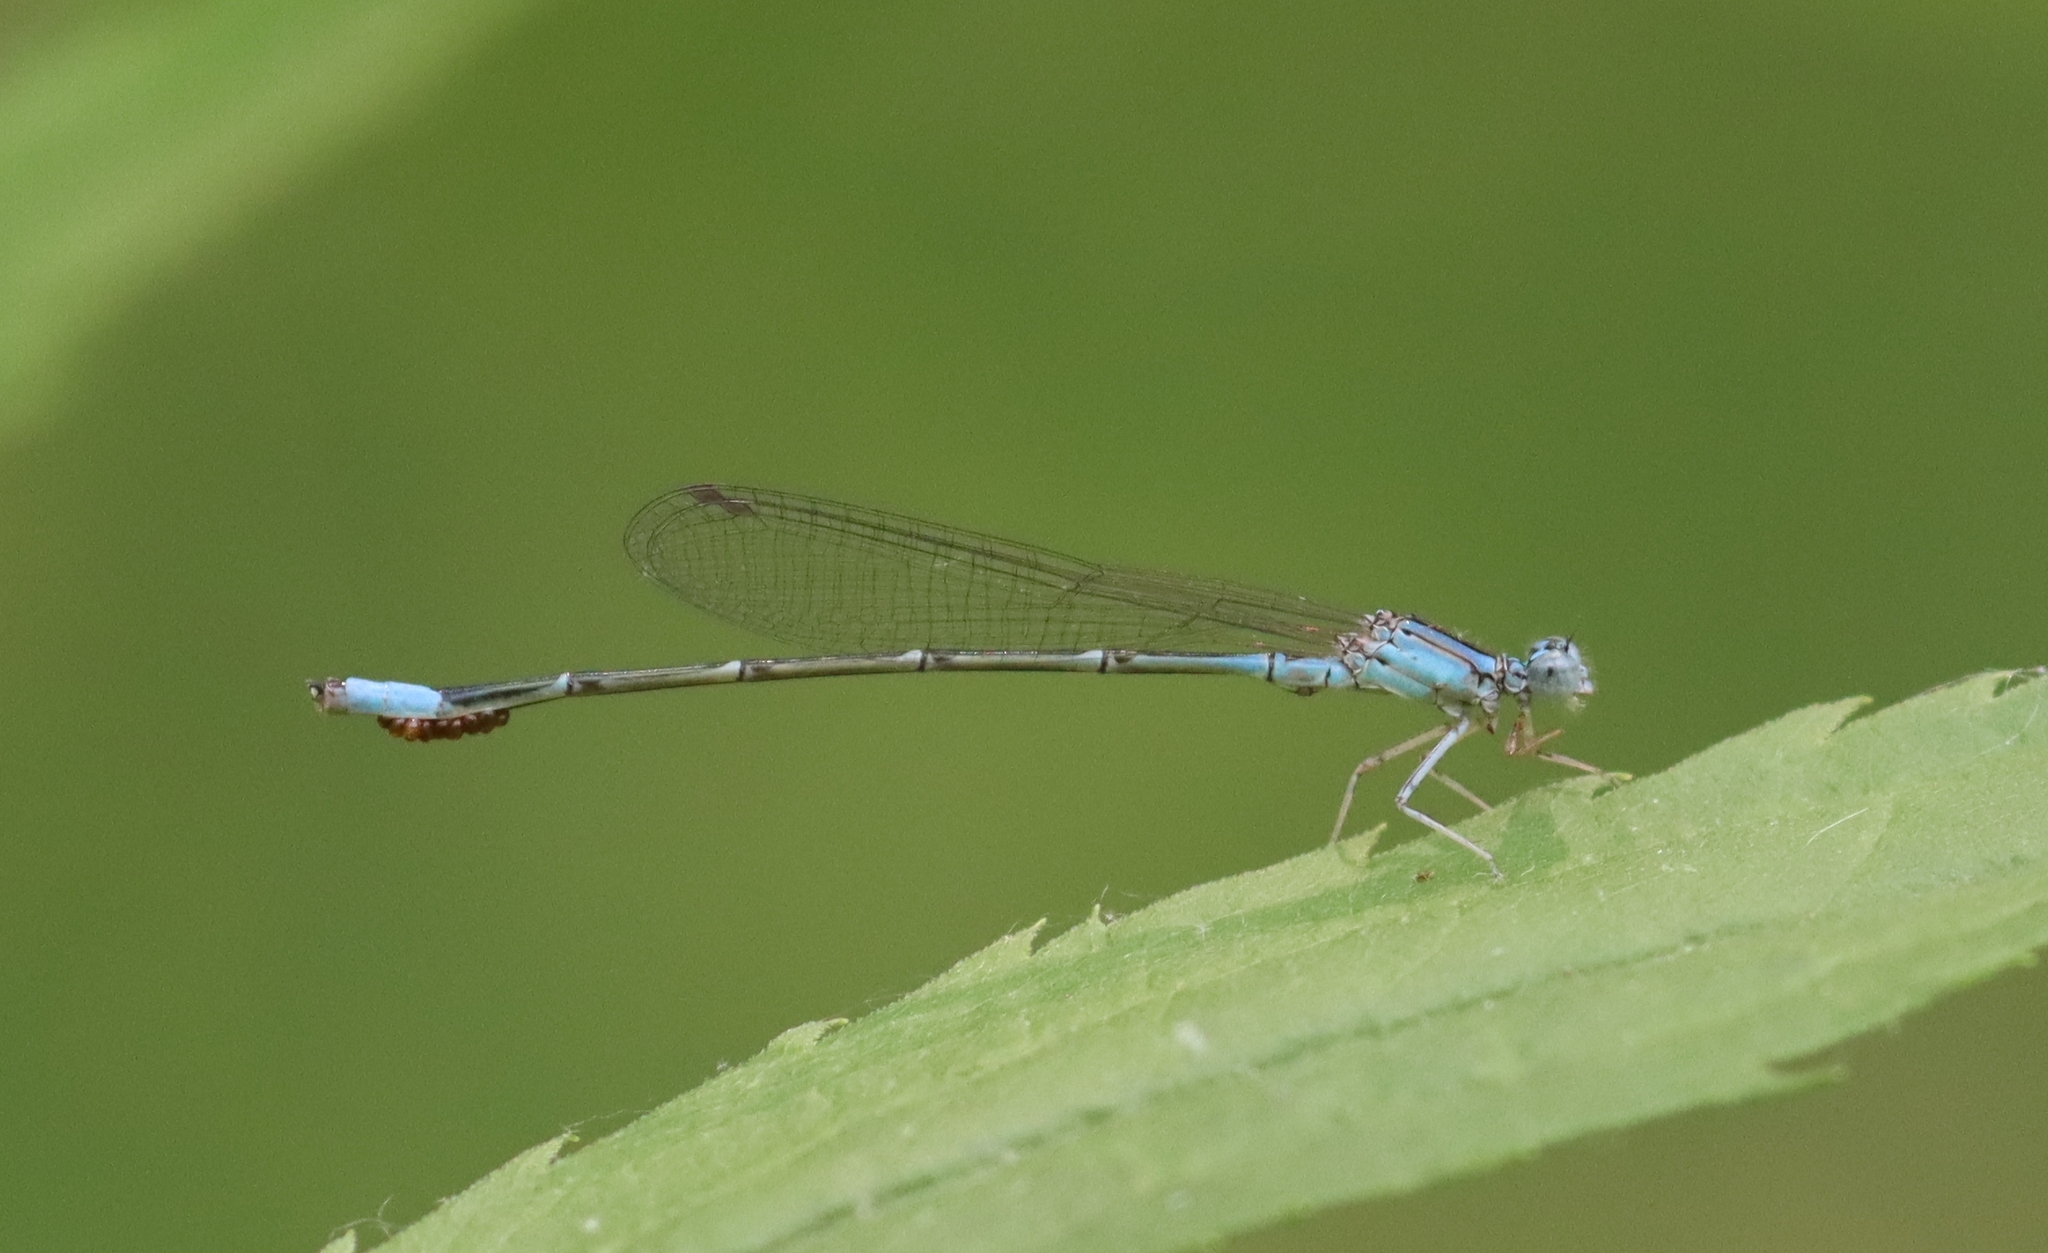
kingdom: Animalia
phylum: Arthropoda
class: Insecta
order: Odonata
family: Coenagrionidae
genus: Enallagma
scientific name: Enallagma traviatum
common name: Slender bluet
